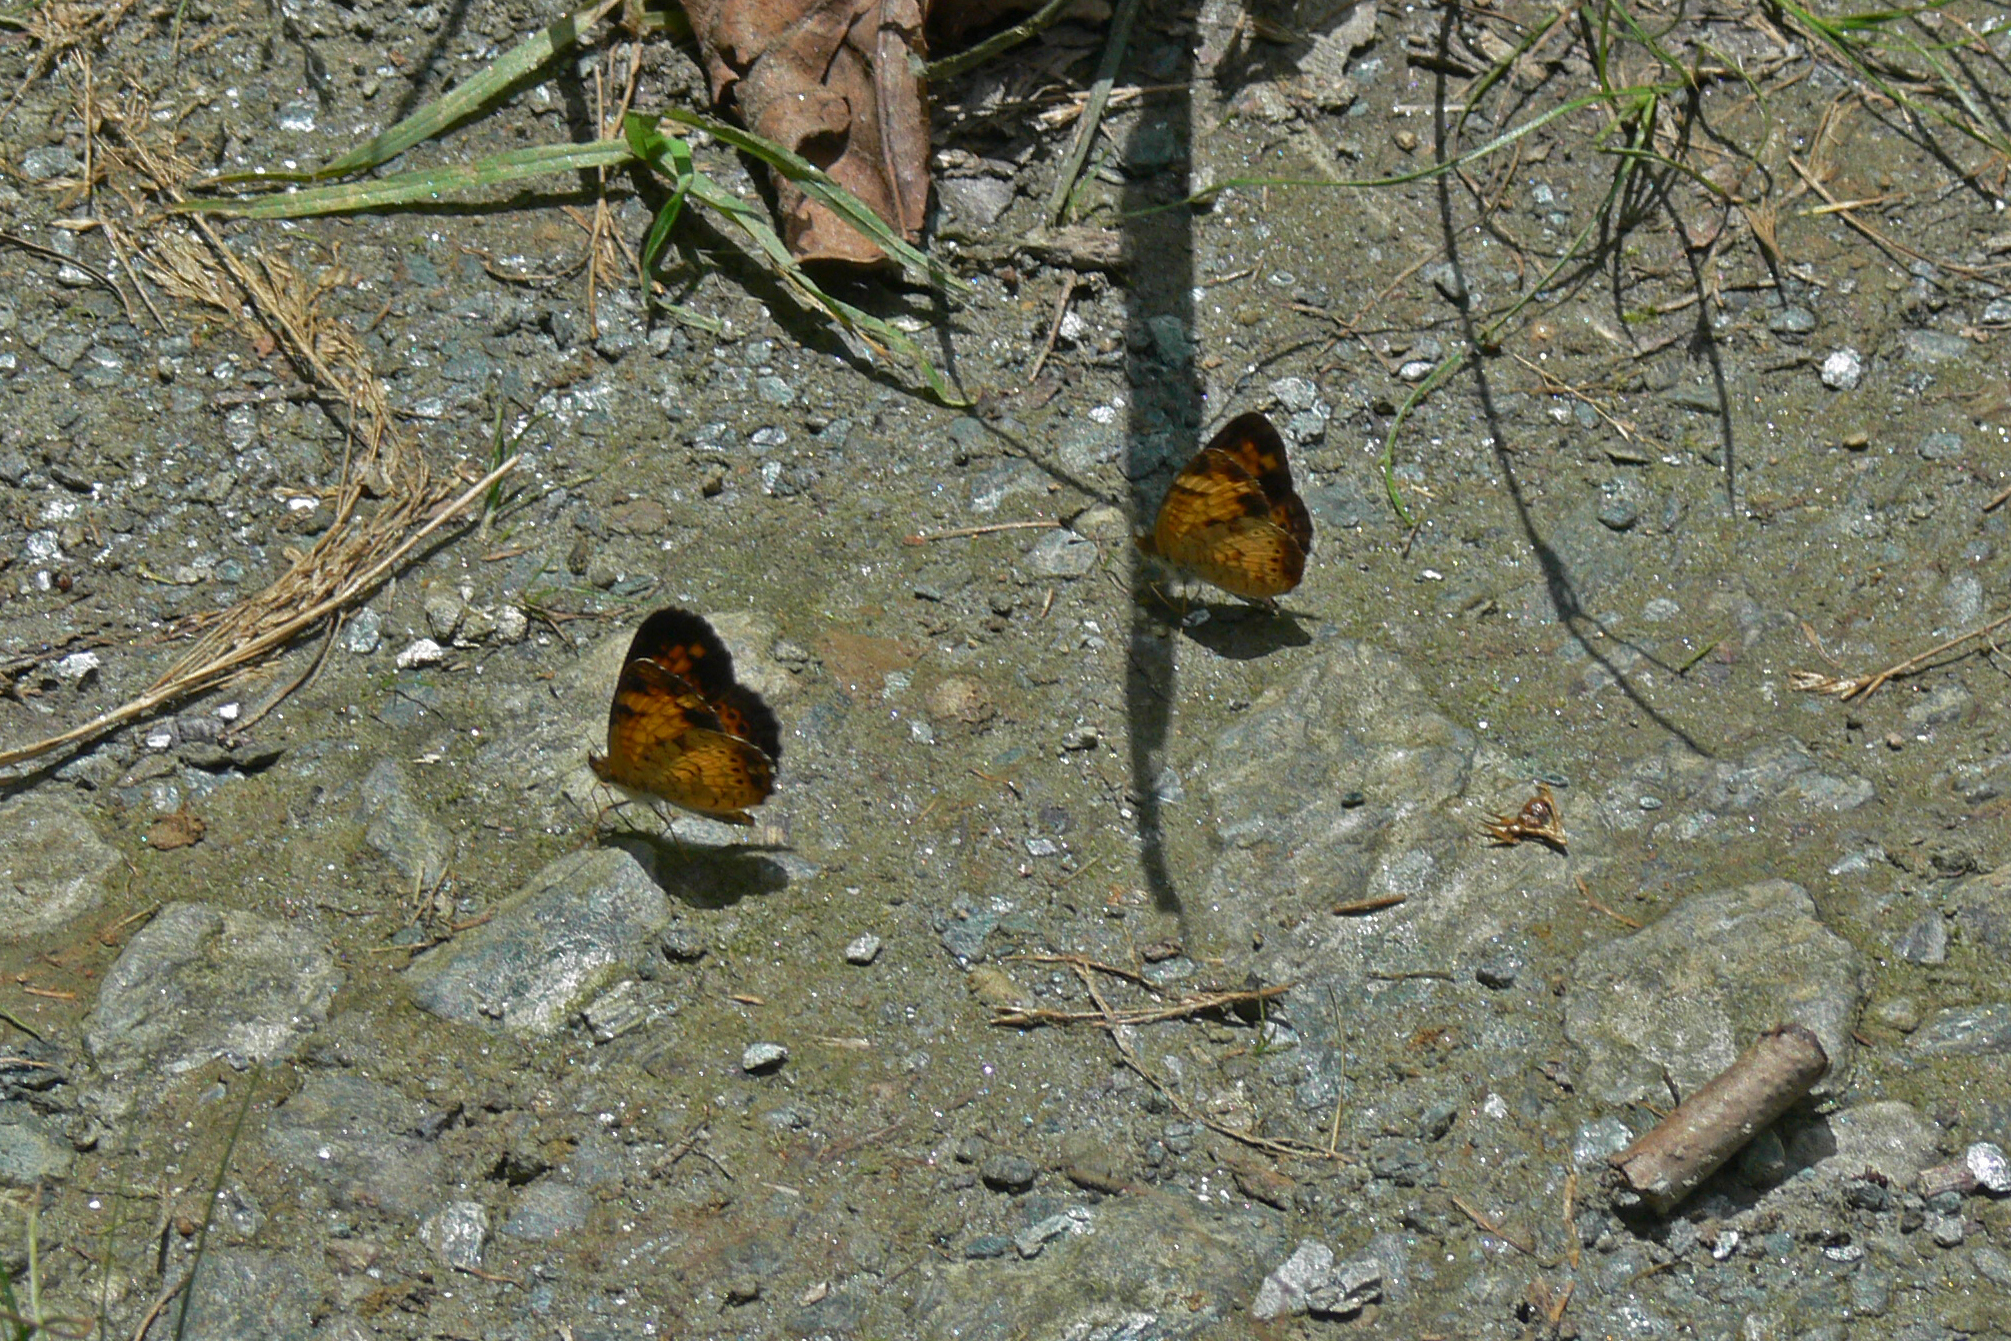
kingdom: Animalia
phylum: Arthropoda
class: Insecta
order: Lepidoptera
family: Nymphalidae
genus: Phyciodes
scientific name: Phyciodes tharos
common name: Pearl crescent
